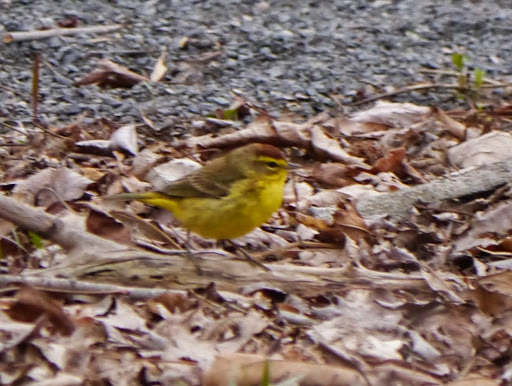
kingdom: Animalia
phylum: Chordata
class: Aves
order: Passeriformes
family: Parulidae
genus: Setophaga
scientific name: Setophaga palmarum
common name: Palm warbler
